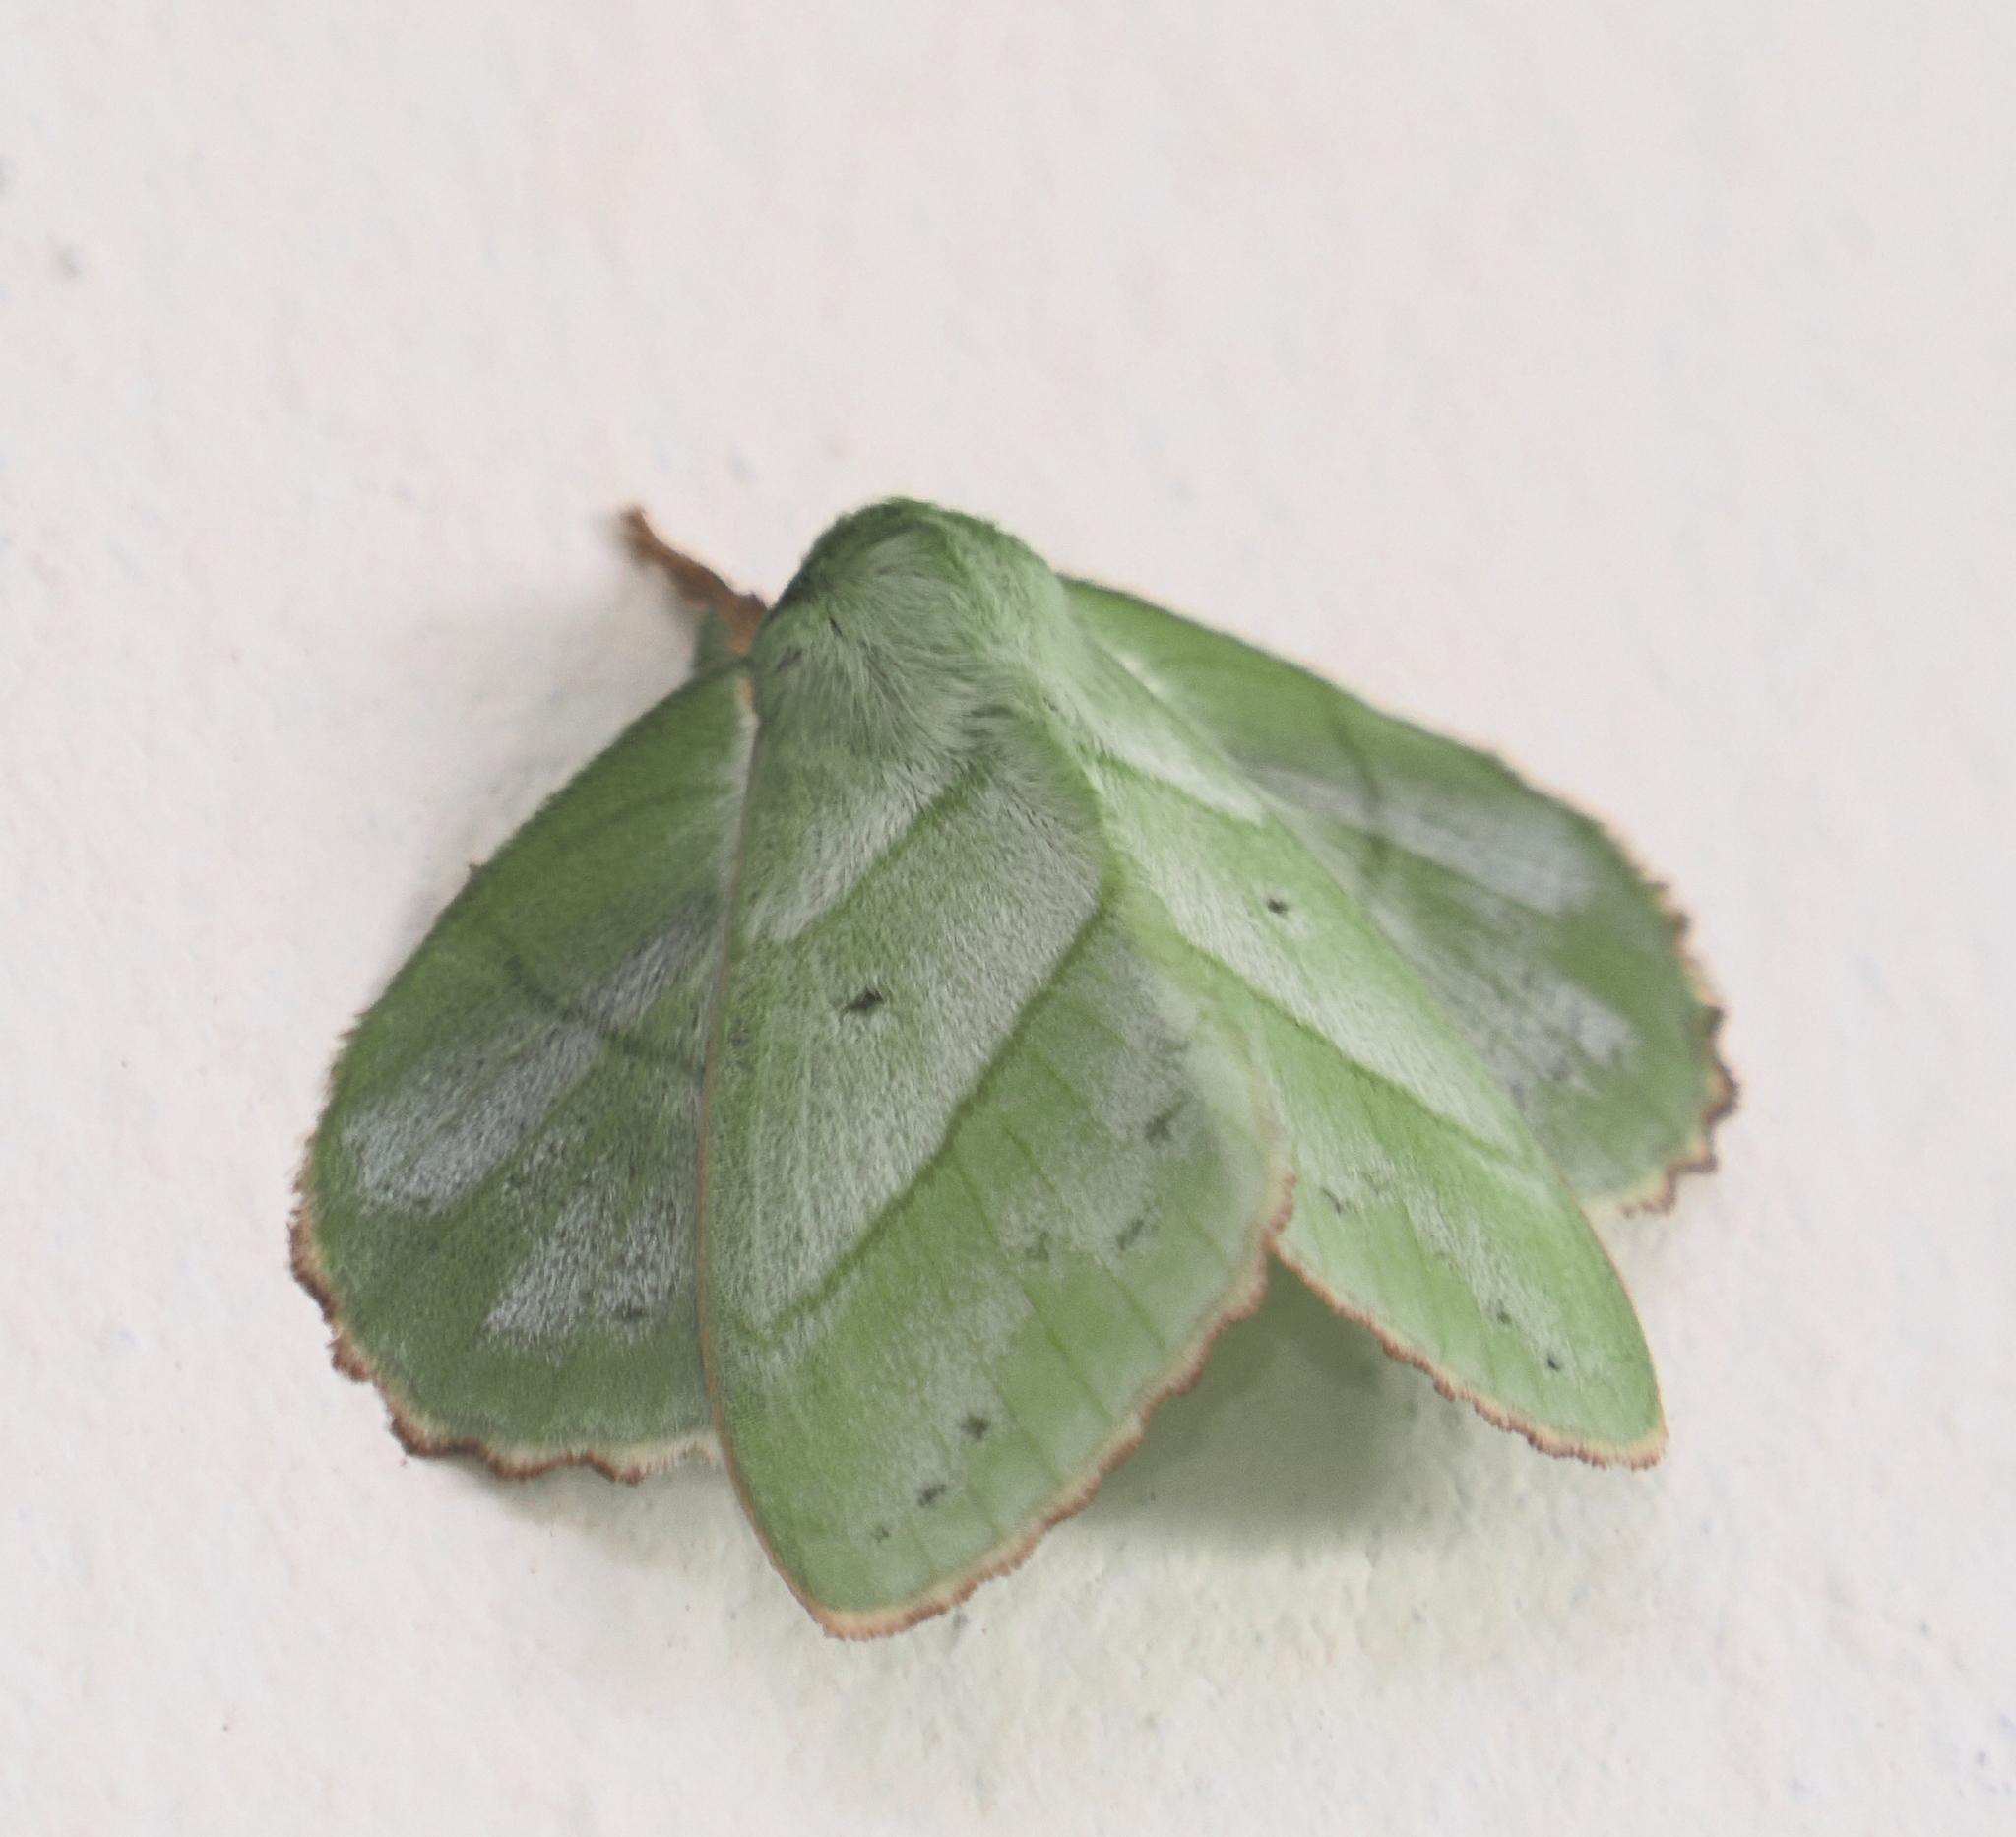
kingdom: Animalia
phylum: Arthropoda
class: Insecta
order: Lepidoptera
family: Lasiocampidae
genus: Trabala
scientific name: Trabala shiva
